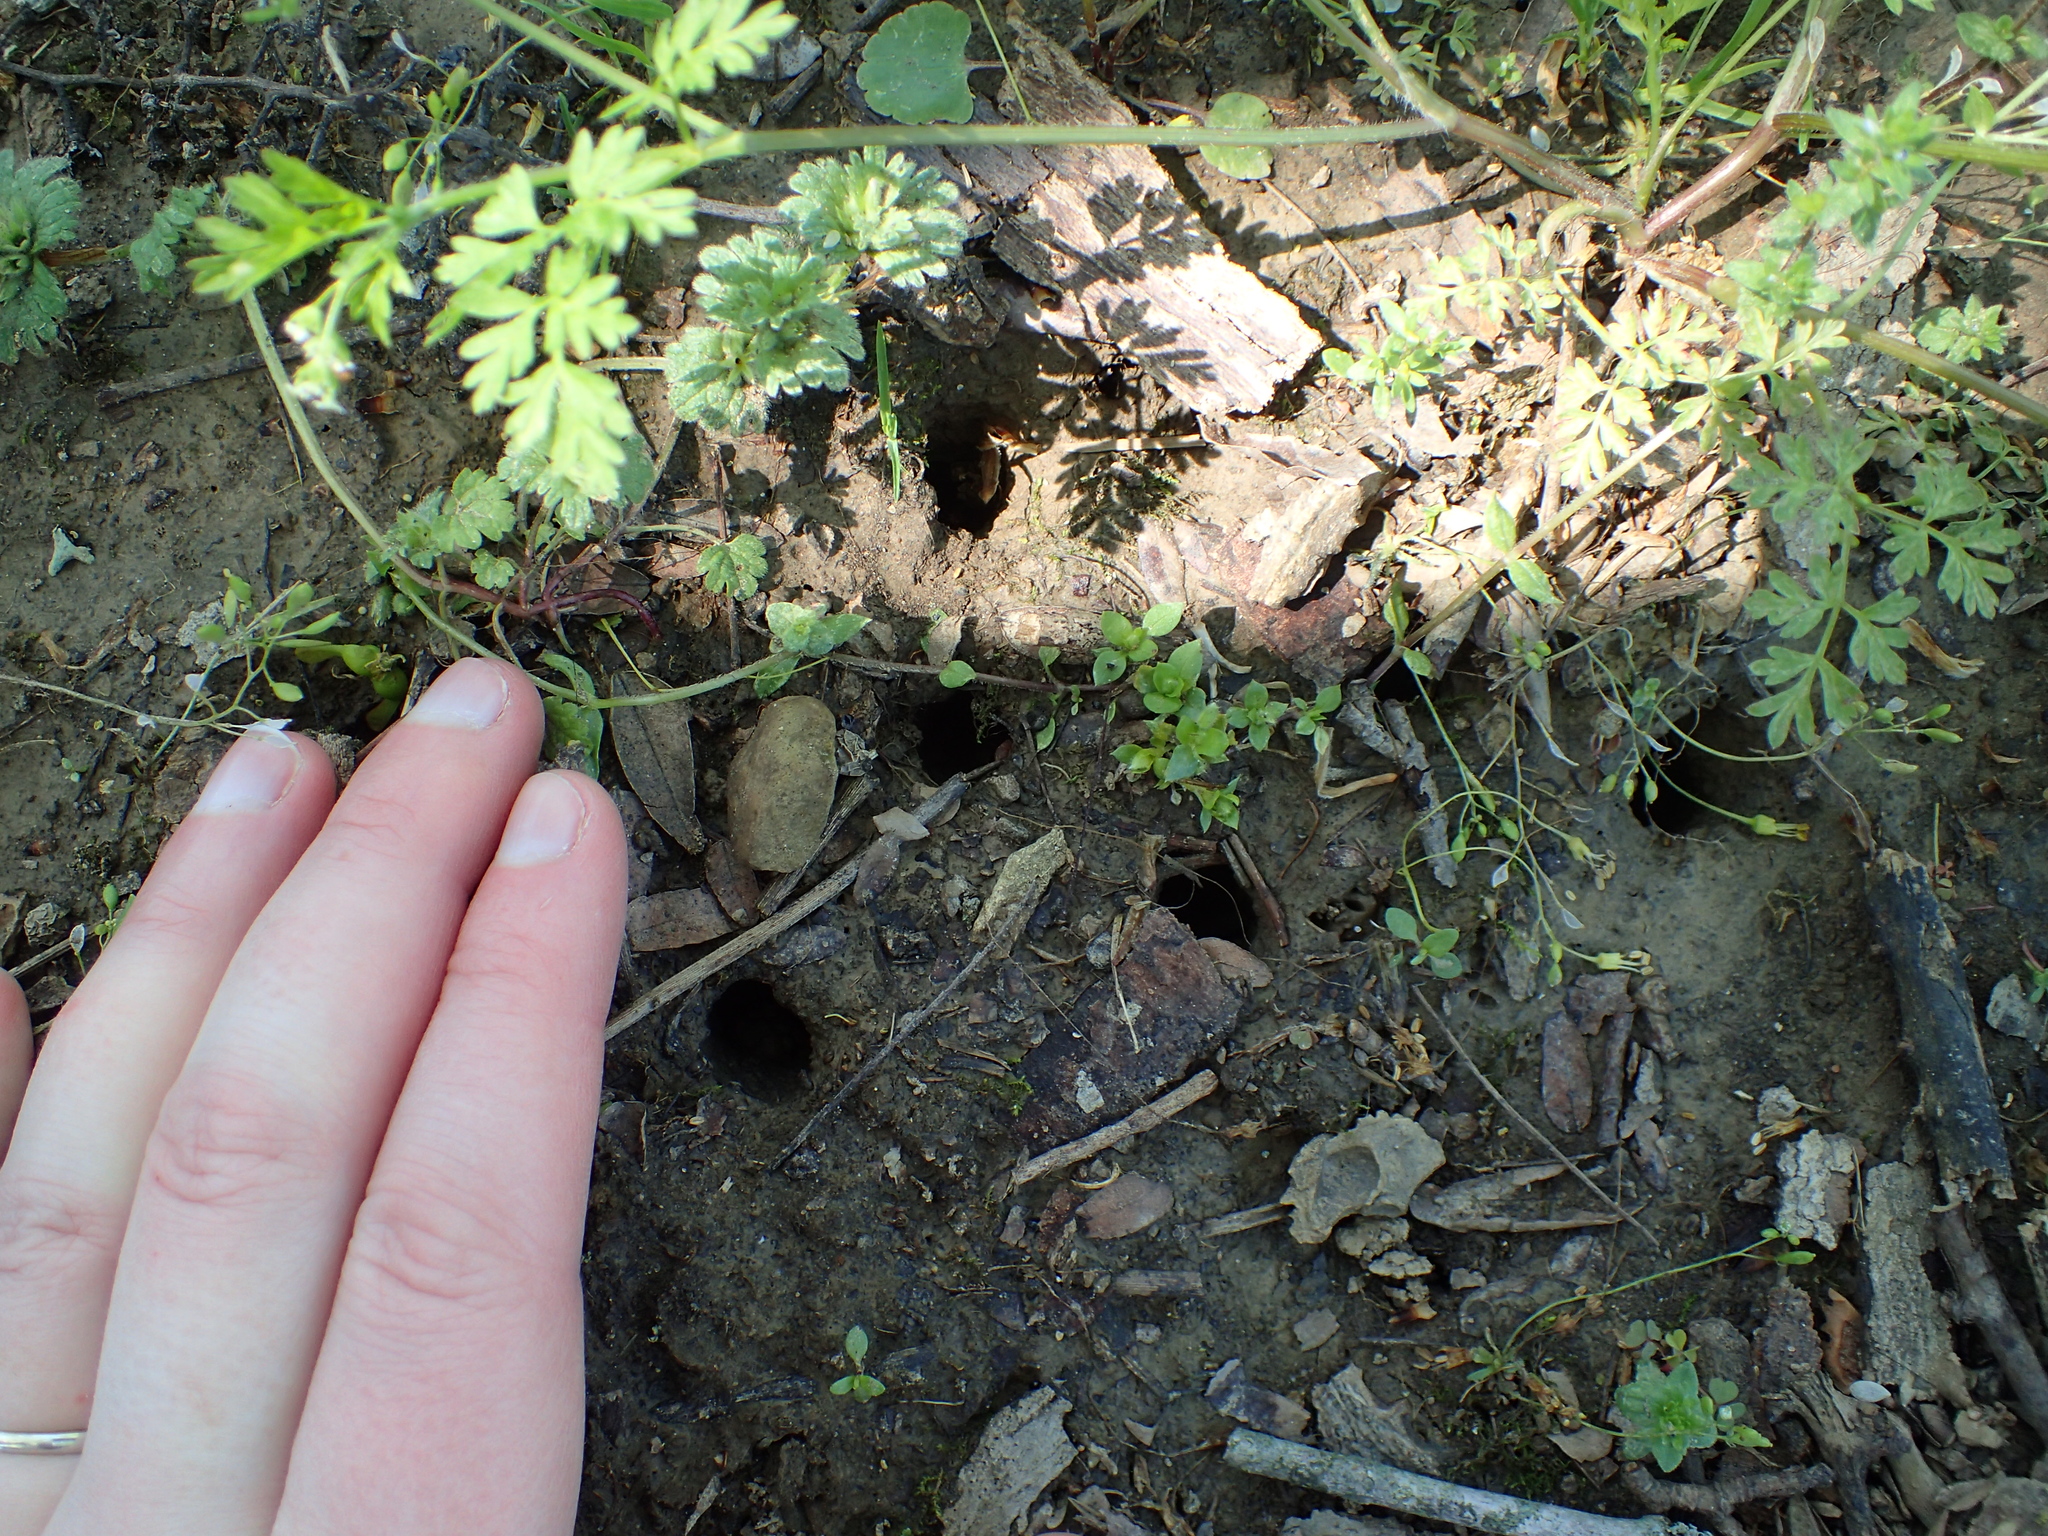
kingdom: Animalia
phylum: Arthropoda
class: Insecta
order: Hemiptera
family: Cicadidae
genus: Magicicada
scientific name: Magicicada
